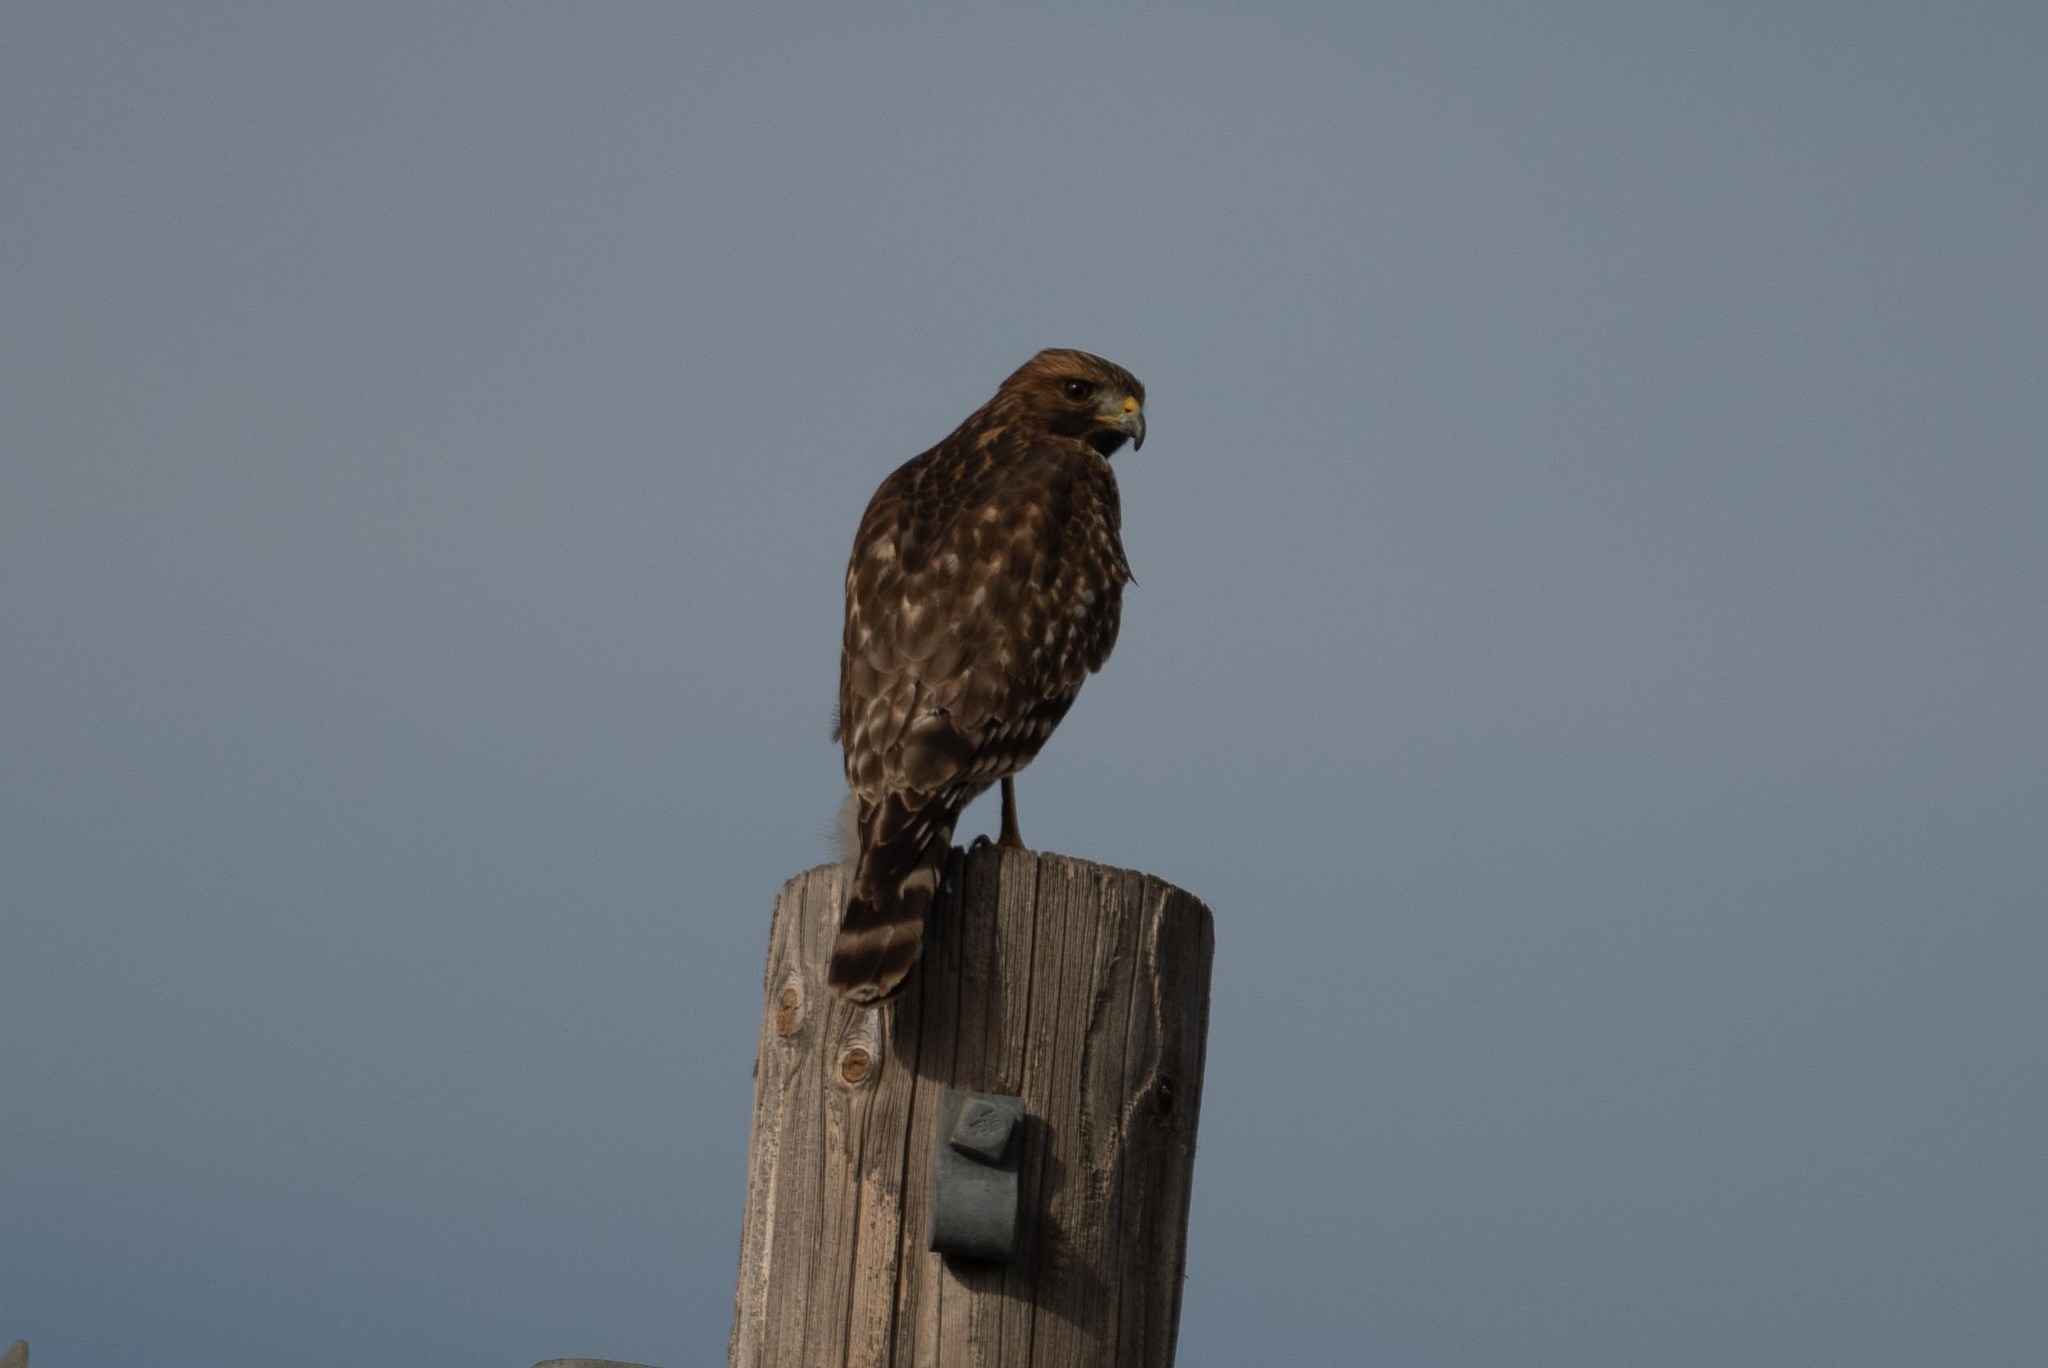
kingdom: Animalia
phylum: Chordata
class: Aves
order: Accipitriformes
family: Accipitridae
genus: Buteo
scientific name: Buteo lineatus
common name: Red-shouldered hawk
